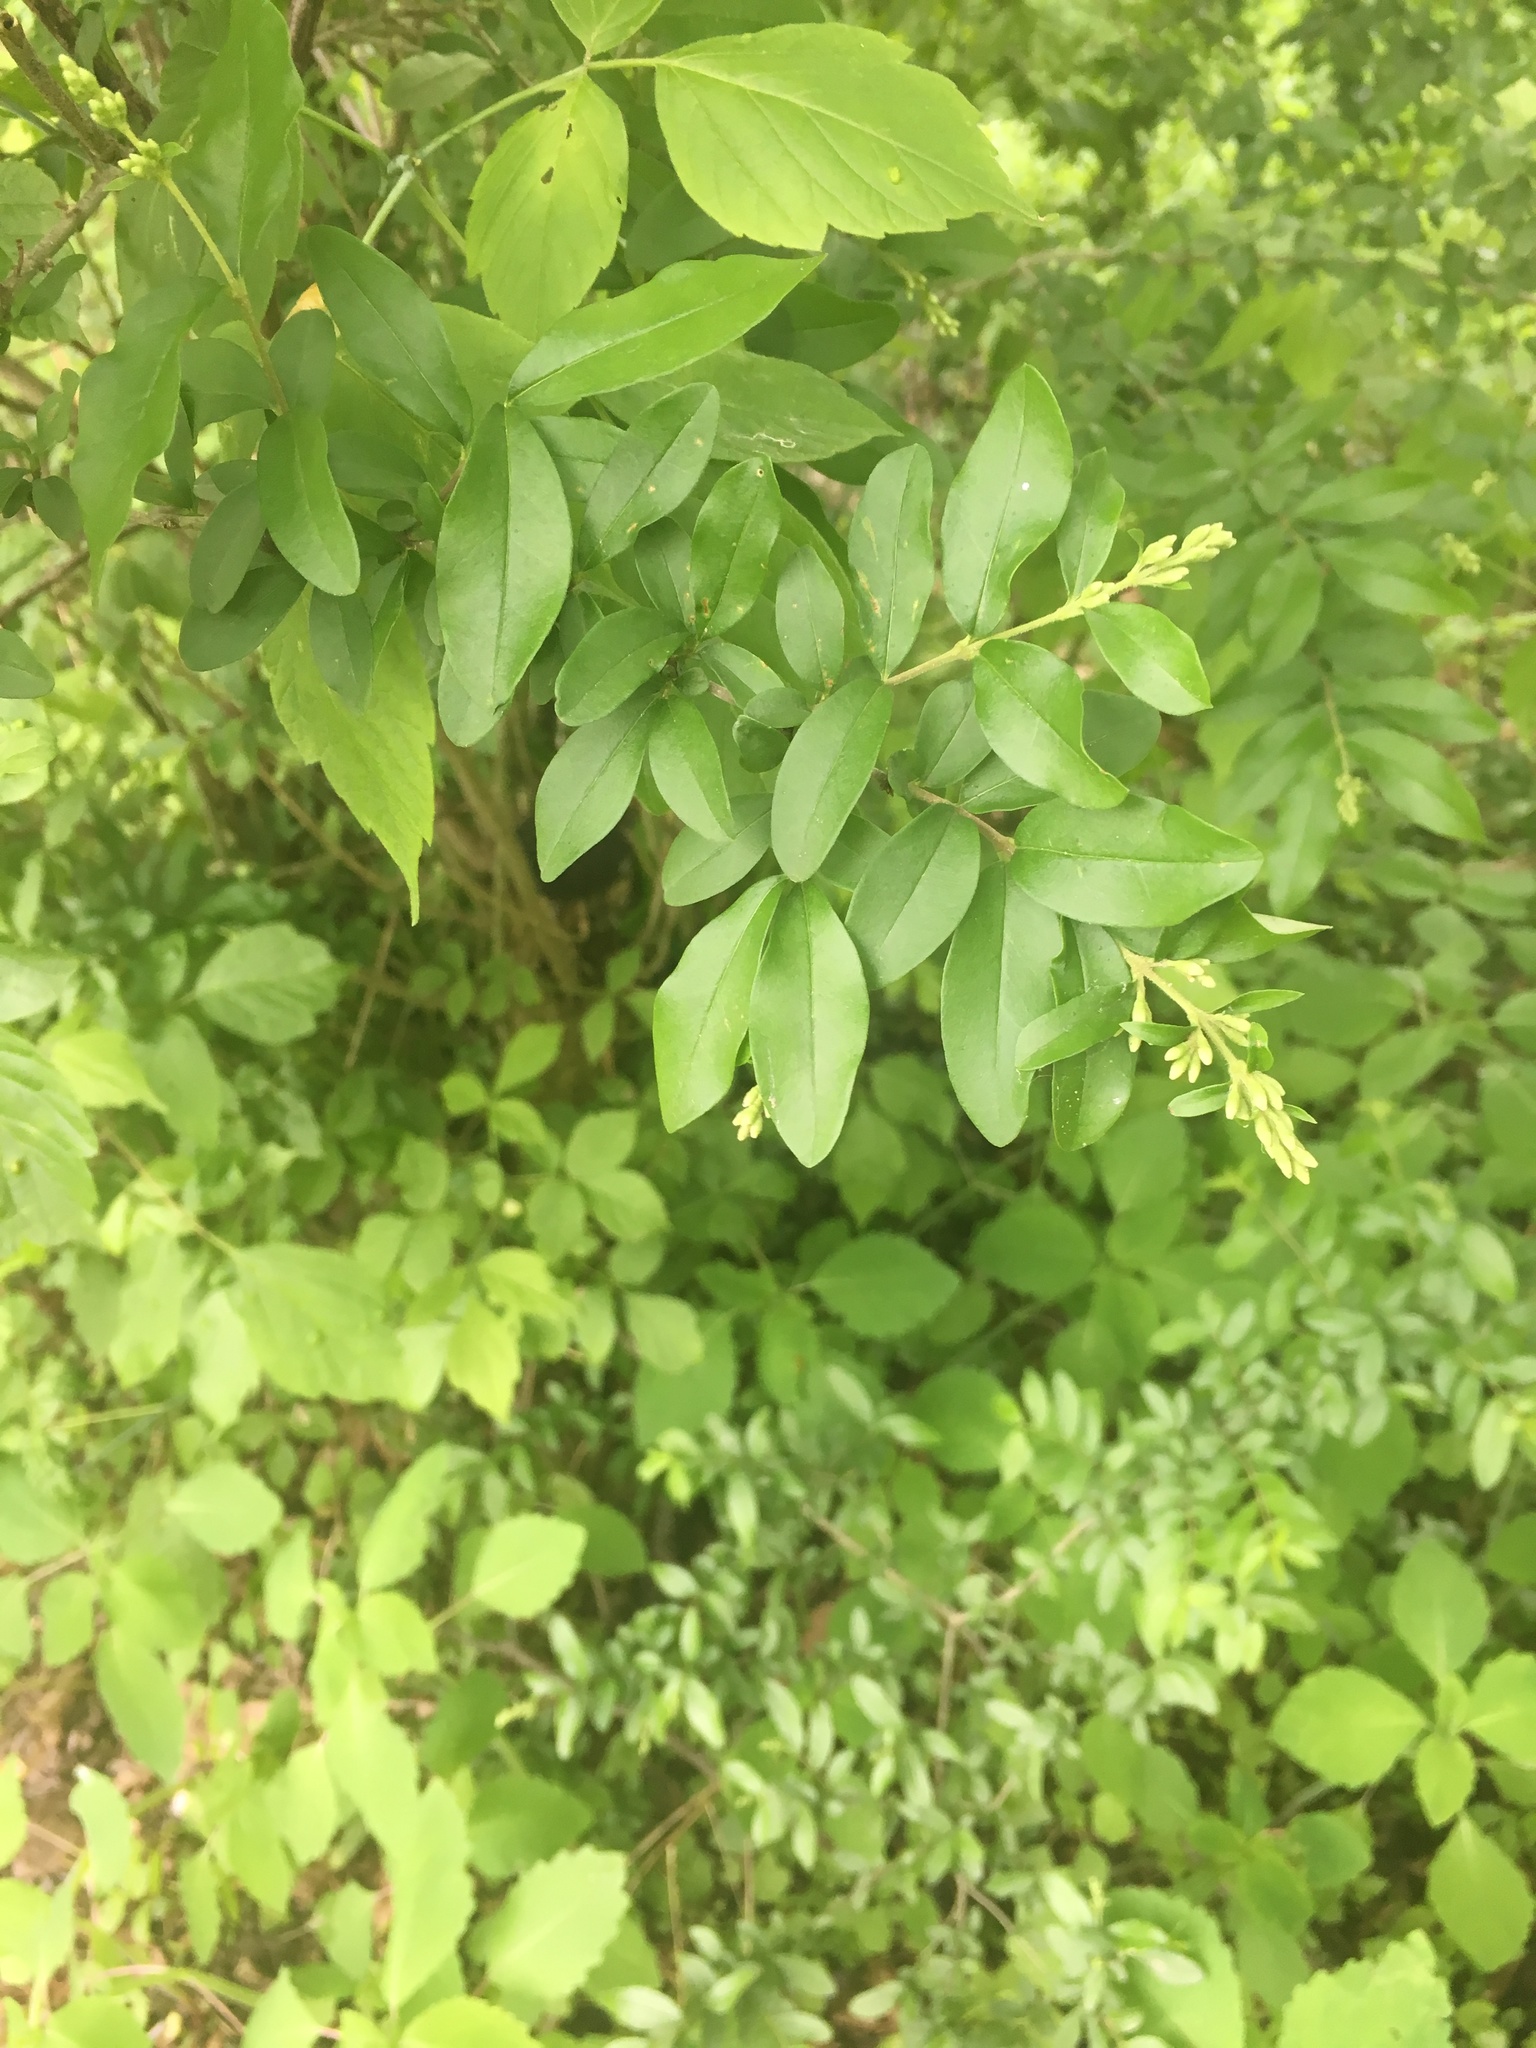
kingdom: Plantae
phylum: Tracheophyta
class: Magnoliopsida
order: Lamiales
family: Oleaceae
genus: Ligustrum
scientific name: Ligustrum obtusifolium
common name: Border privet
